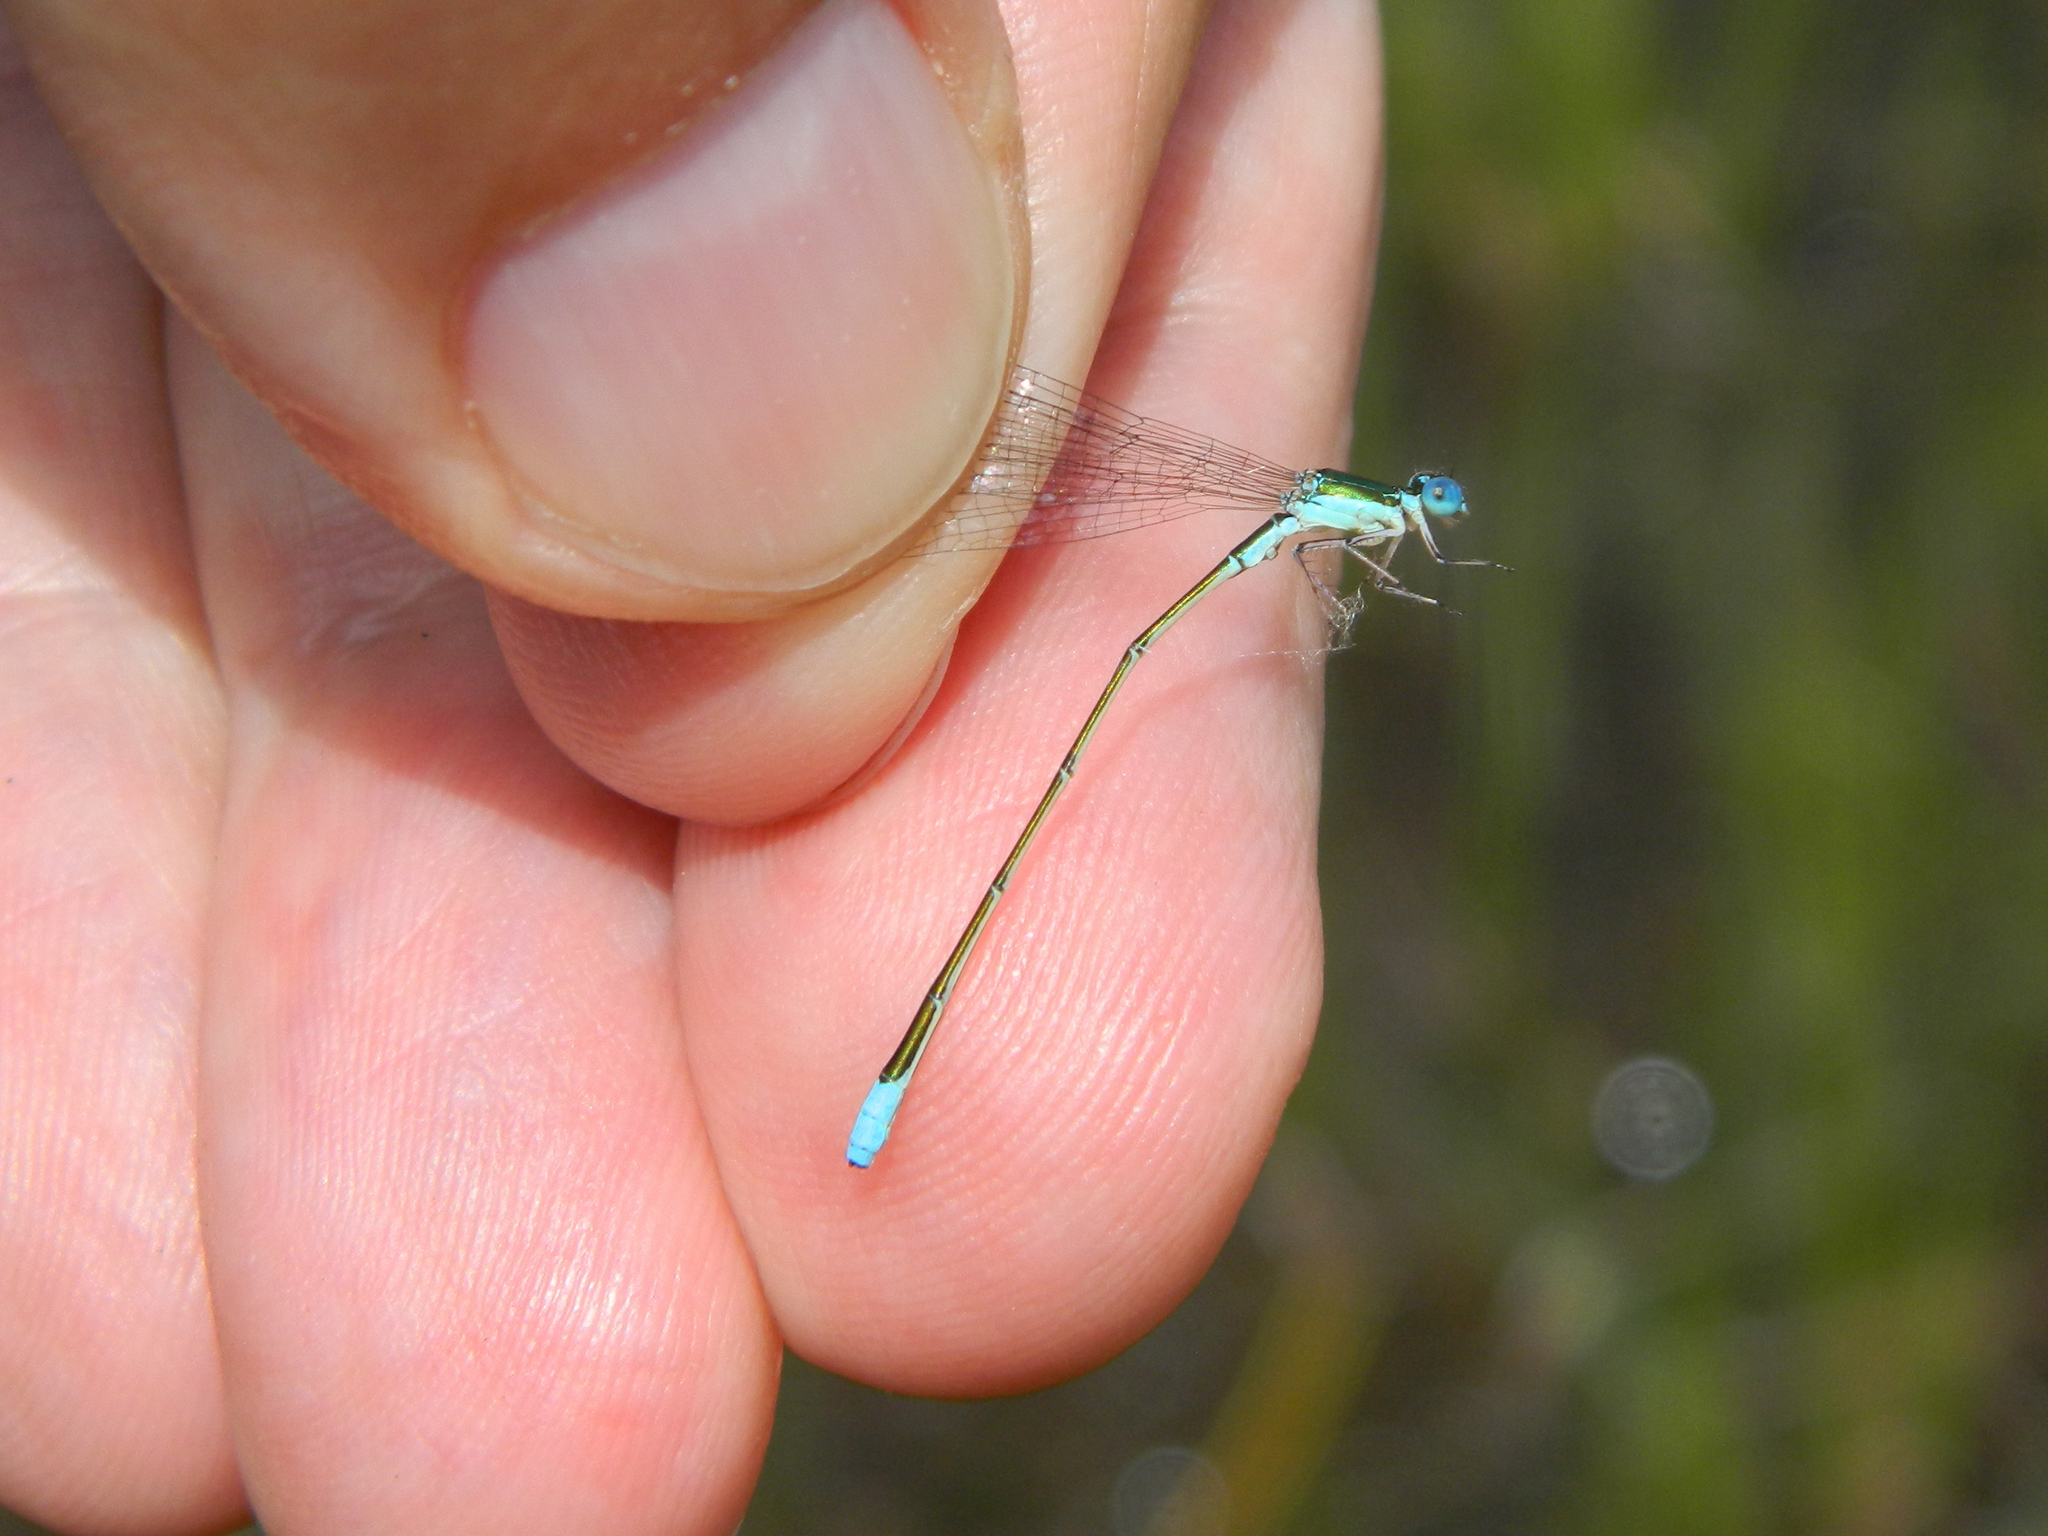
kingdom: Animalia
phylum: Arthropoda
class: Insecta
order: Odonata
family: Coenagrionidae
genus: Nehalennia
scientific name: Nehalennia gracilis
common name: Sphagnum sprite
